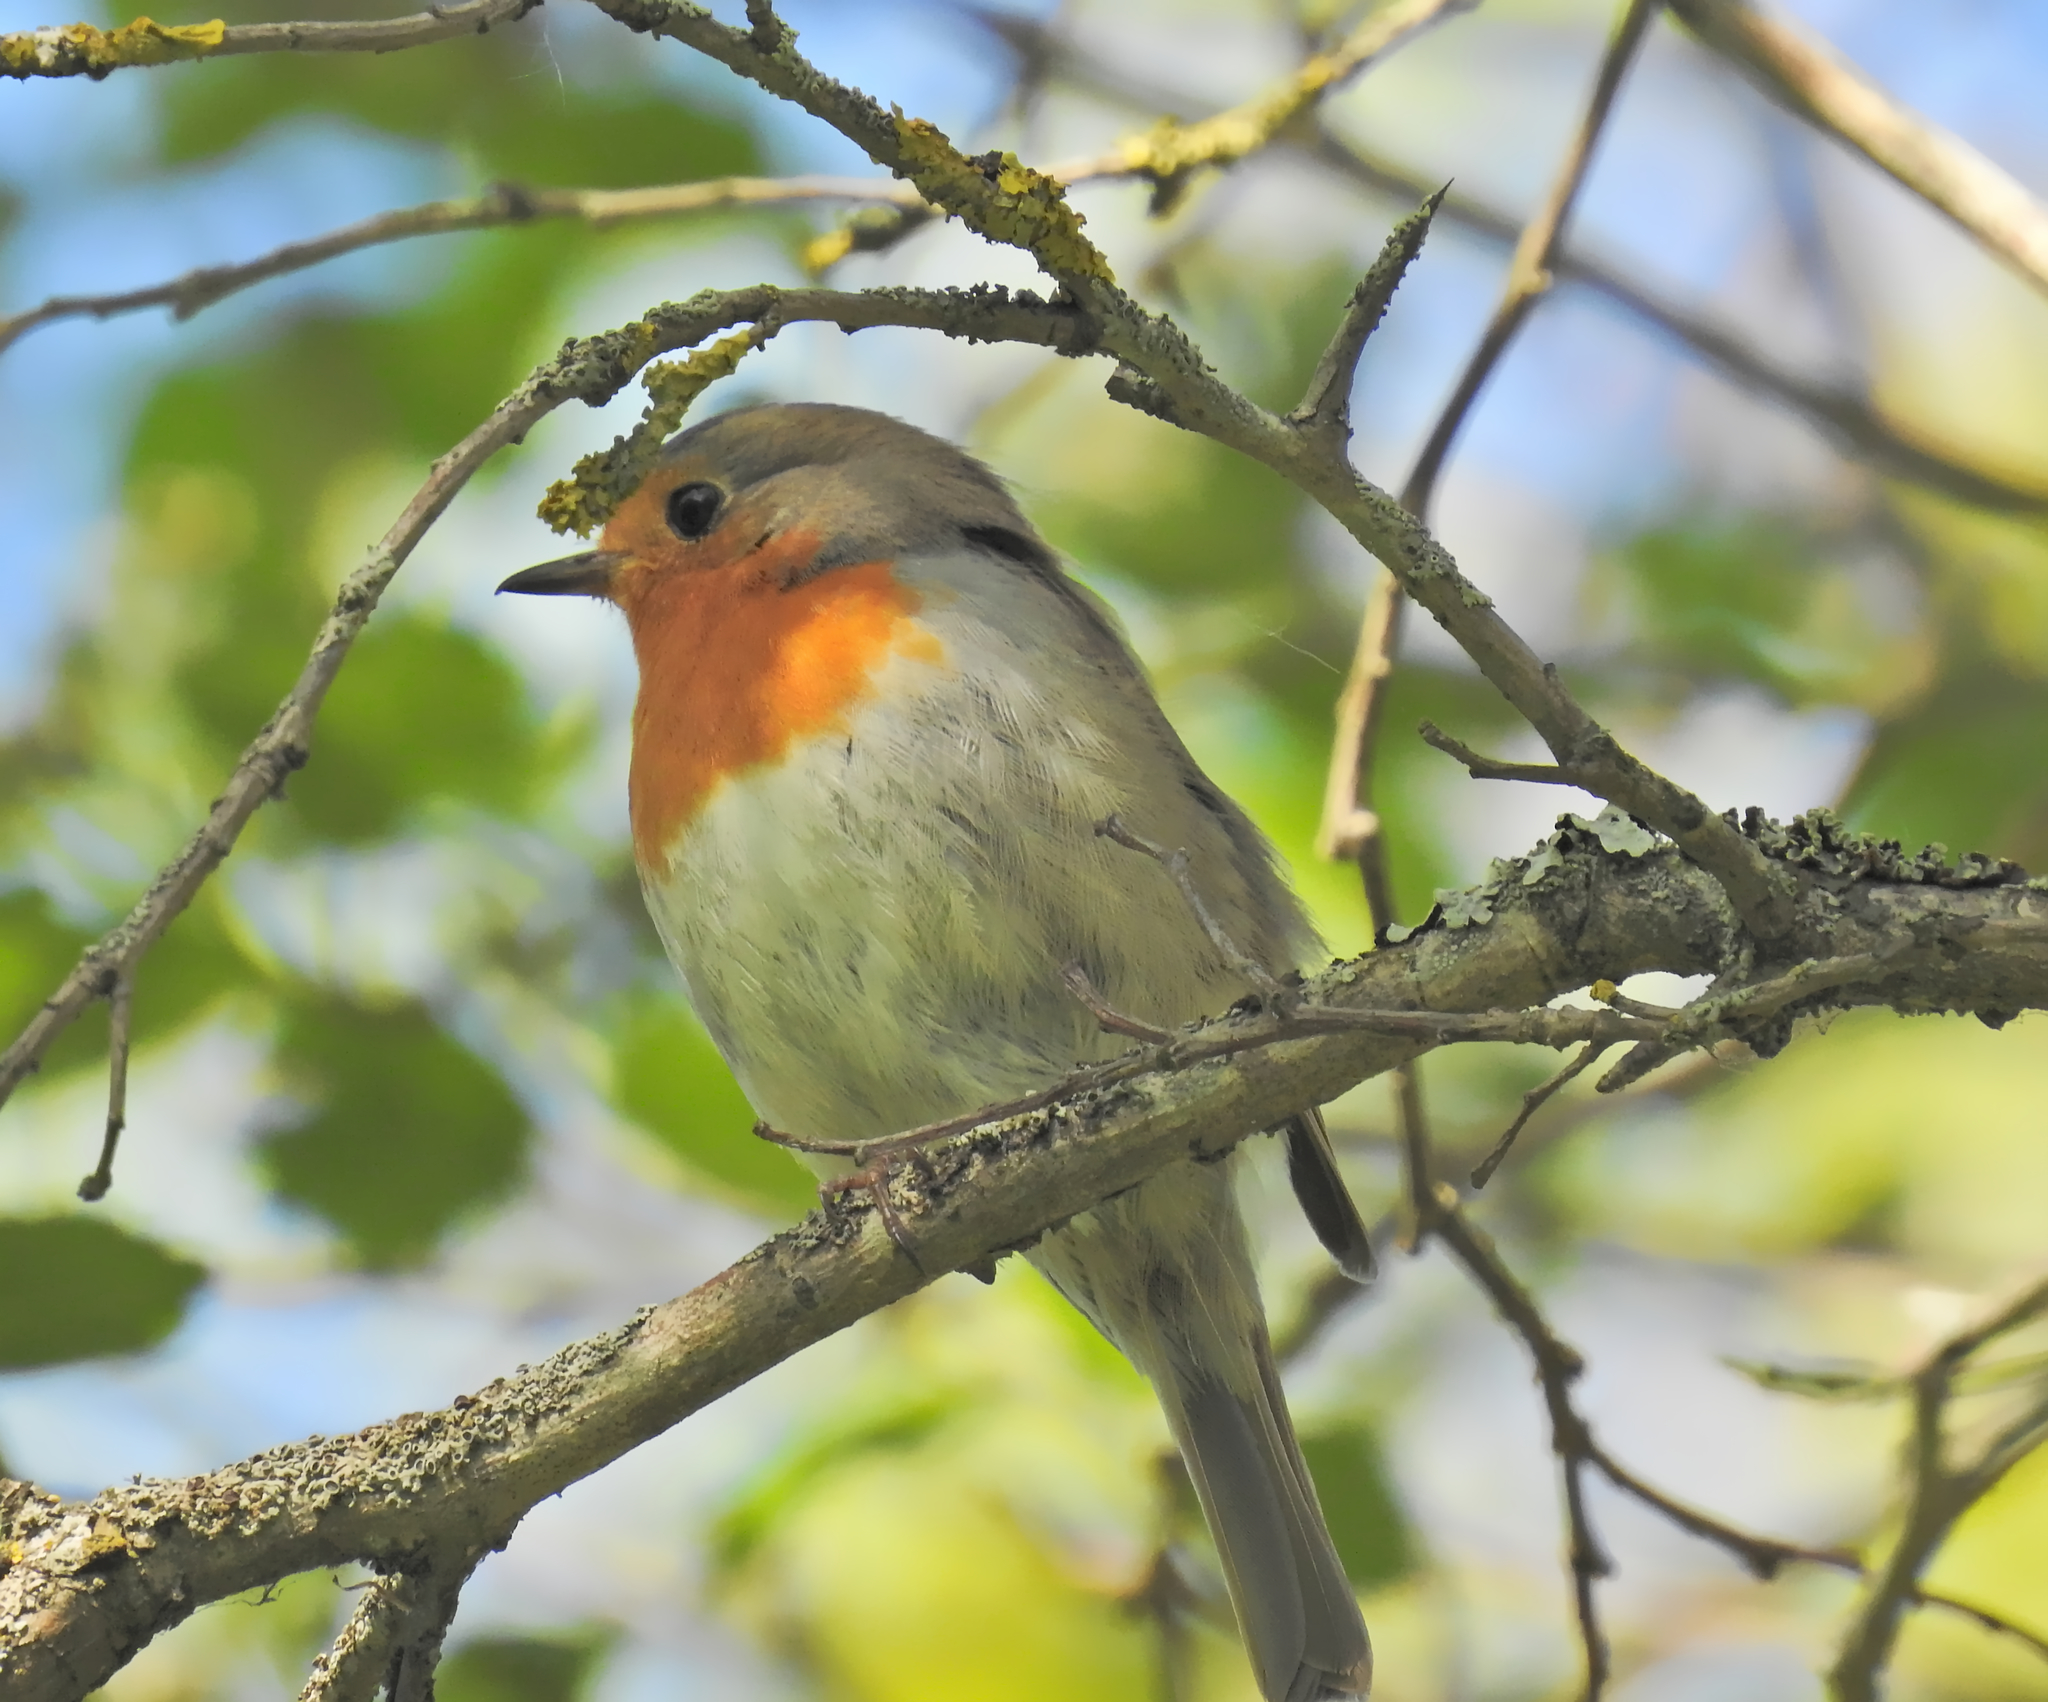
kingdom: Animalia
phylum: Chordata
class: Aves
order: Passeriformes
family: Muscicapidae
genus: Erithacus
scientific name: Erithacus rubecula
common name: European robin
